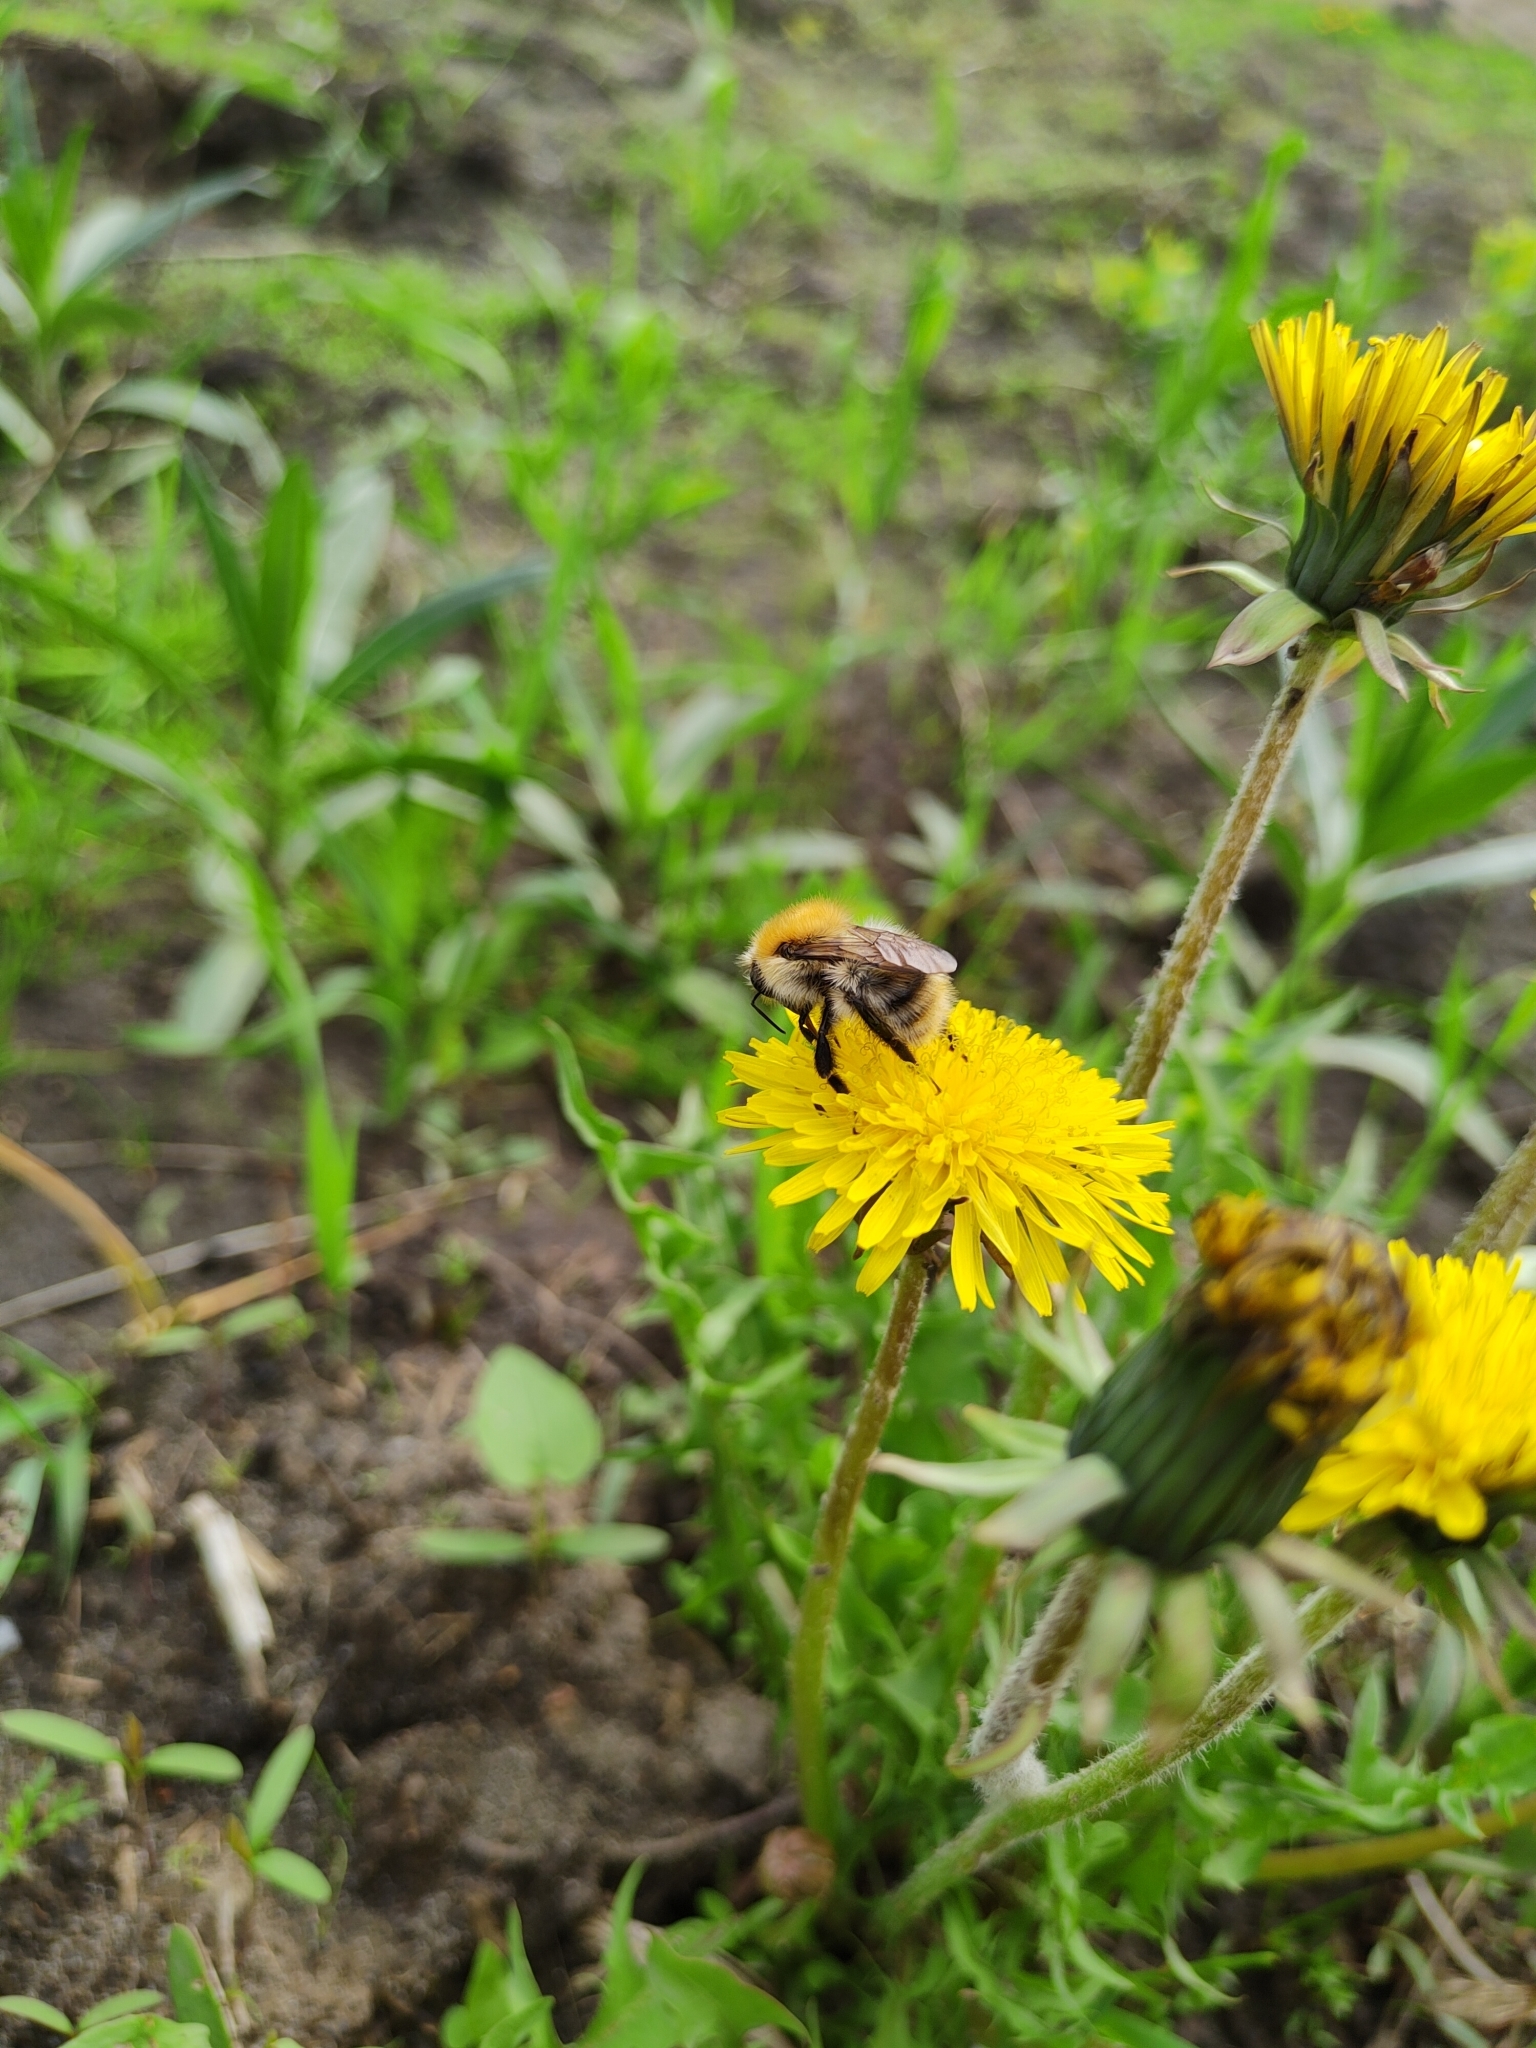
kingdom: Animalia
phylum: Arthropoda
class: Insecta
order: Hymenoptera
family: Apidae
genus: Bombus
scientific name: Bombus pascuorum
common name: Common carder bee
